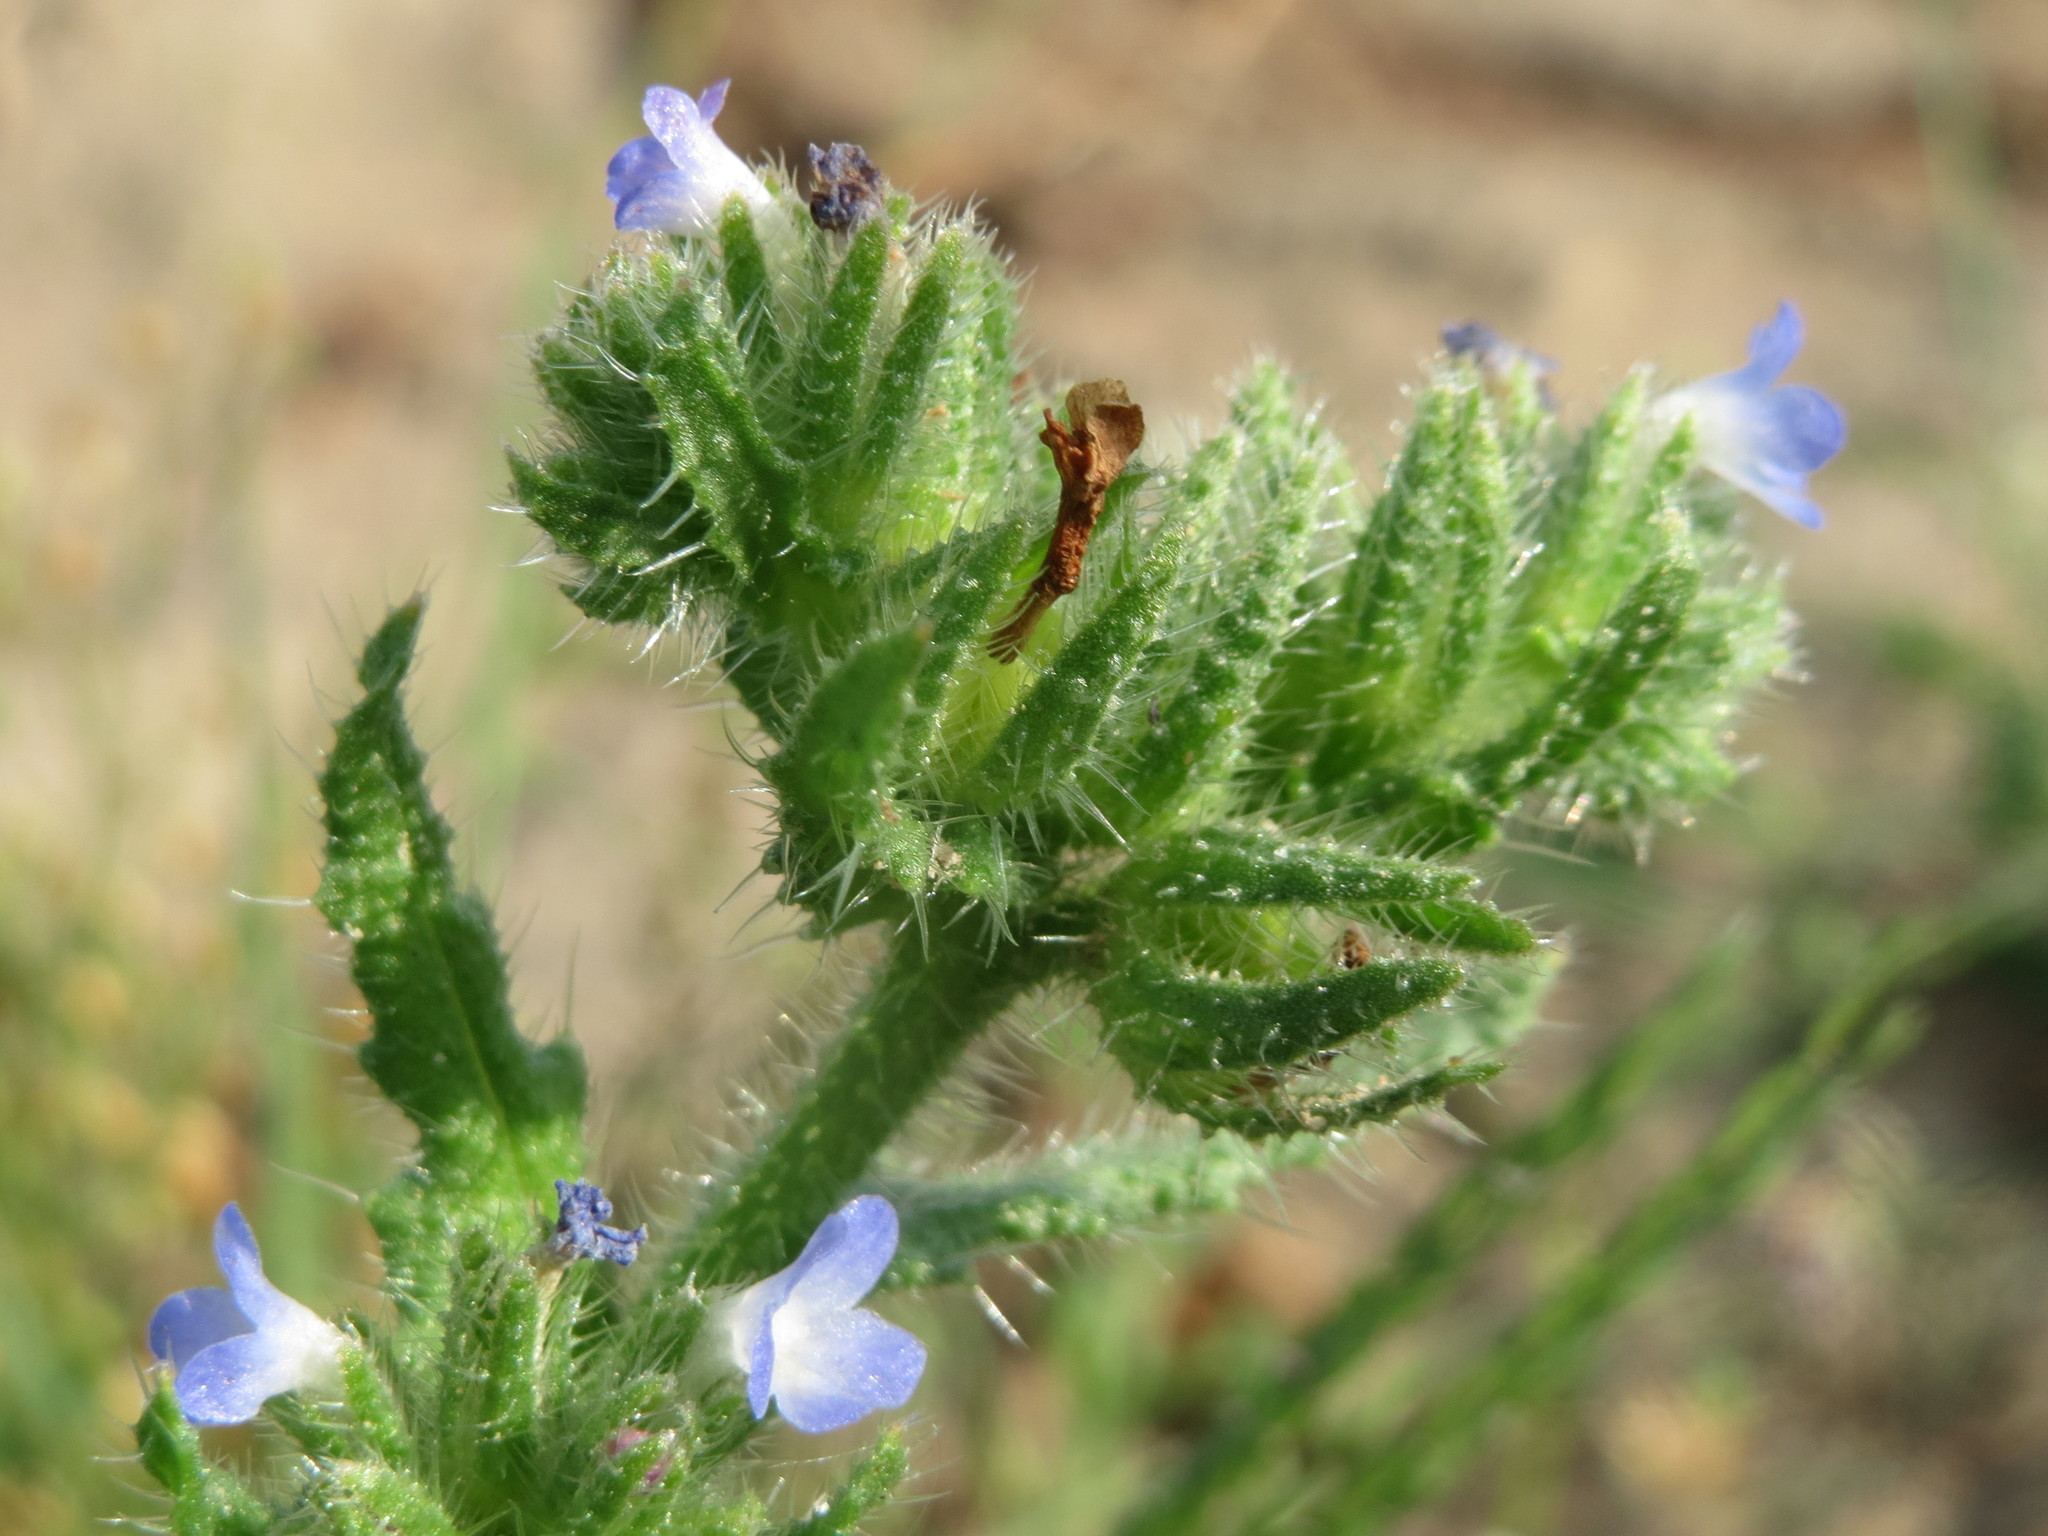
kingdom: Plantae
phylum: Tracheophyta
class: Magnoliopsida
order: Boraginales
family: Boraginaceae
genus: Lycopsis
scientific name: Lycopsis arvensis
